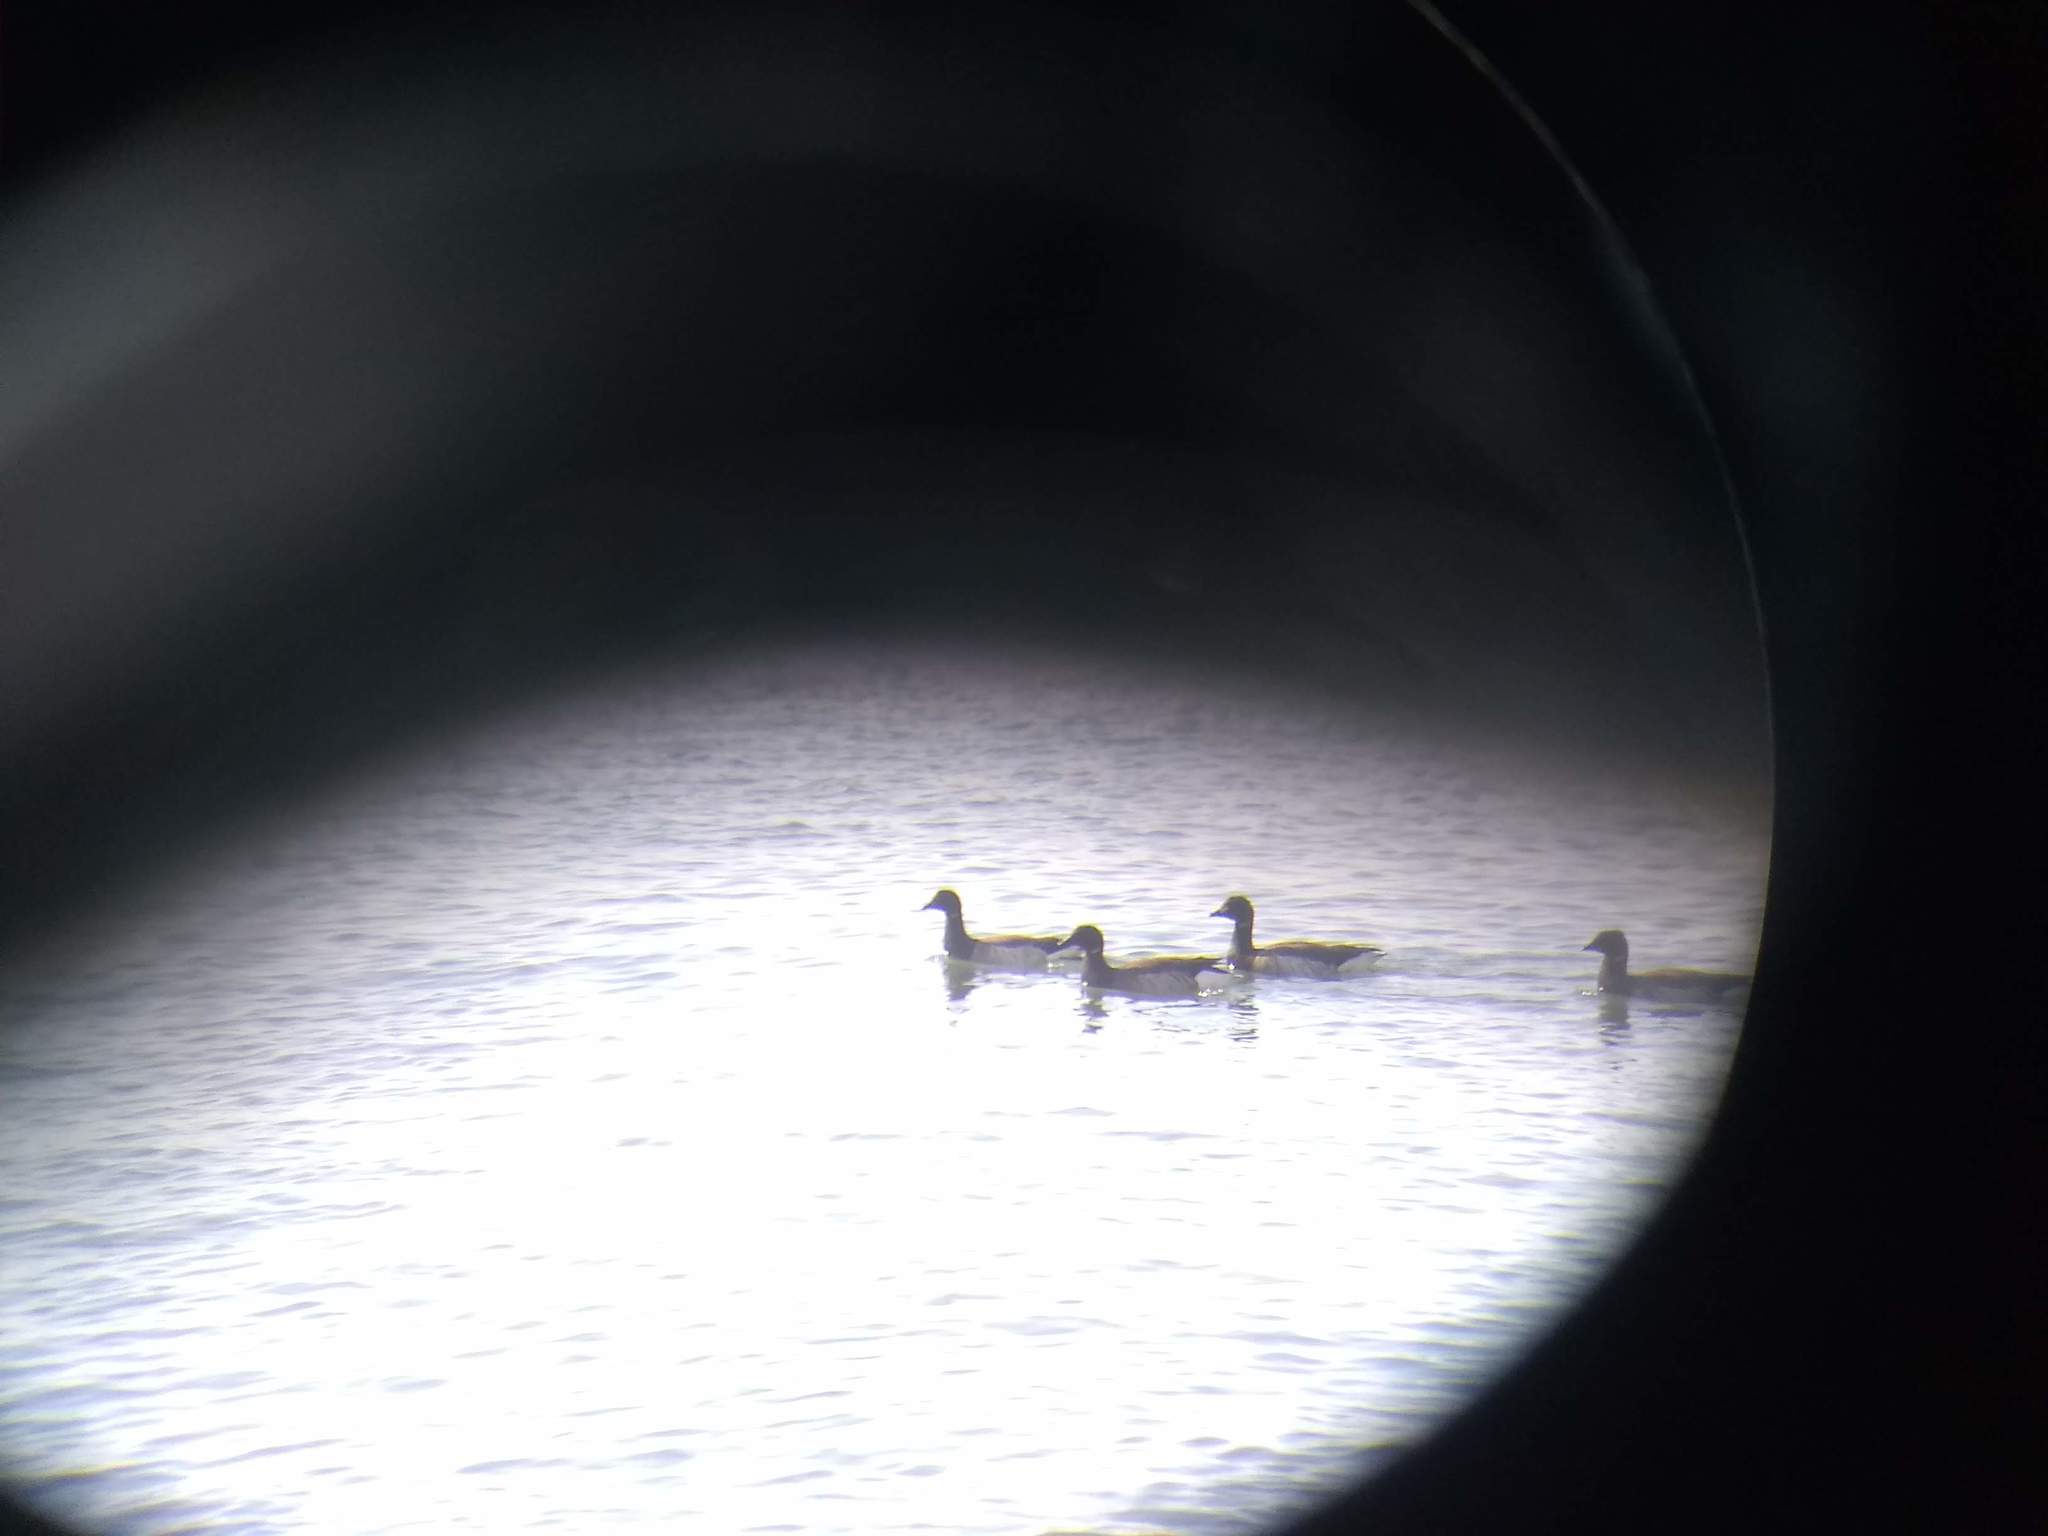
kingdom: Animalia
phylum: Chordata
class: Aves
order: Anseriformes
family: Anatidae
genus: Branta
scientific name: Branta bernicla
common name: Brant goose
